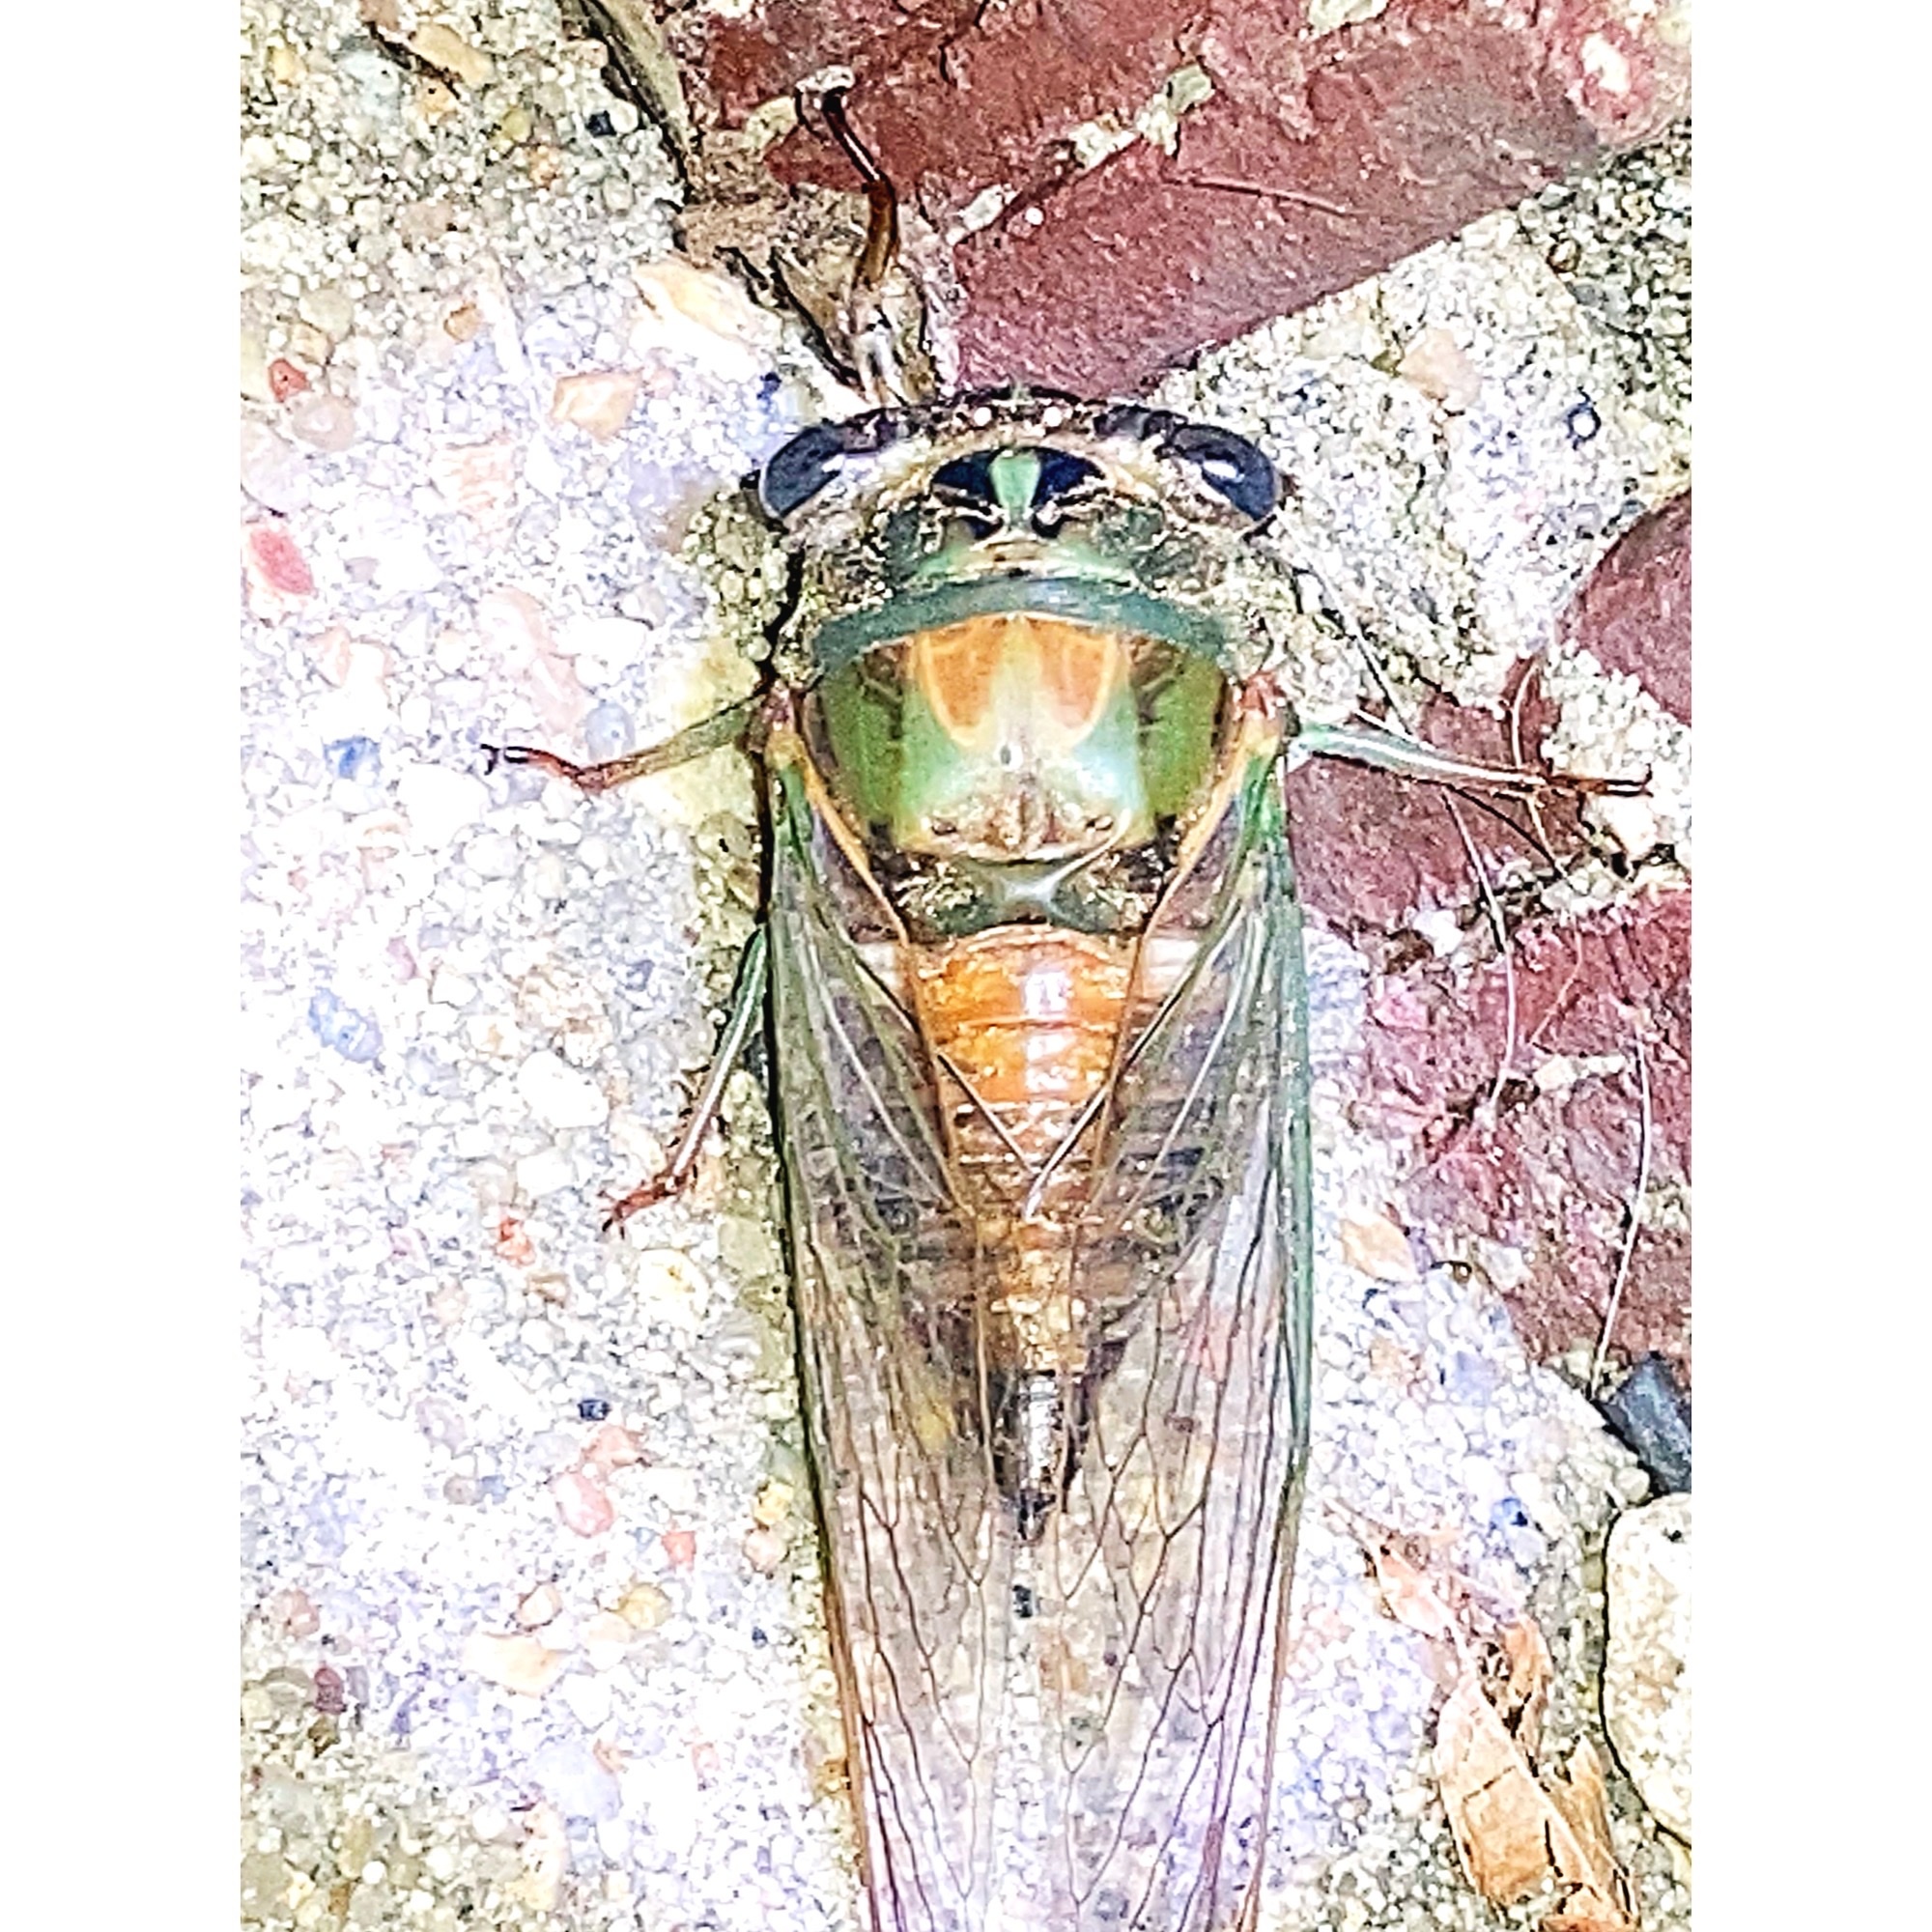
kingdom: Animalia
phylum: Arthropoda
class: Insecta
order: Hemiptera
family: Cicadidae
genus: Neotibicen
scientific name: Neotibicen pruinosus
